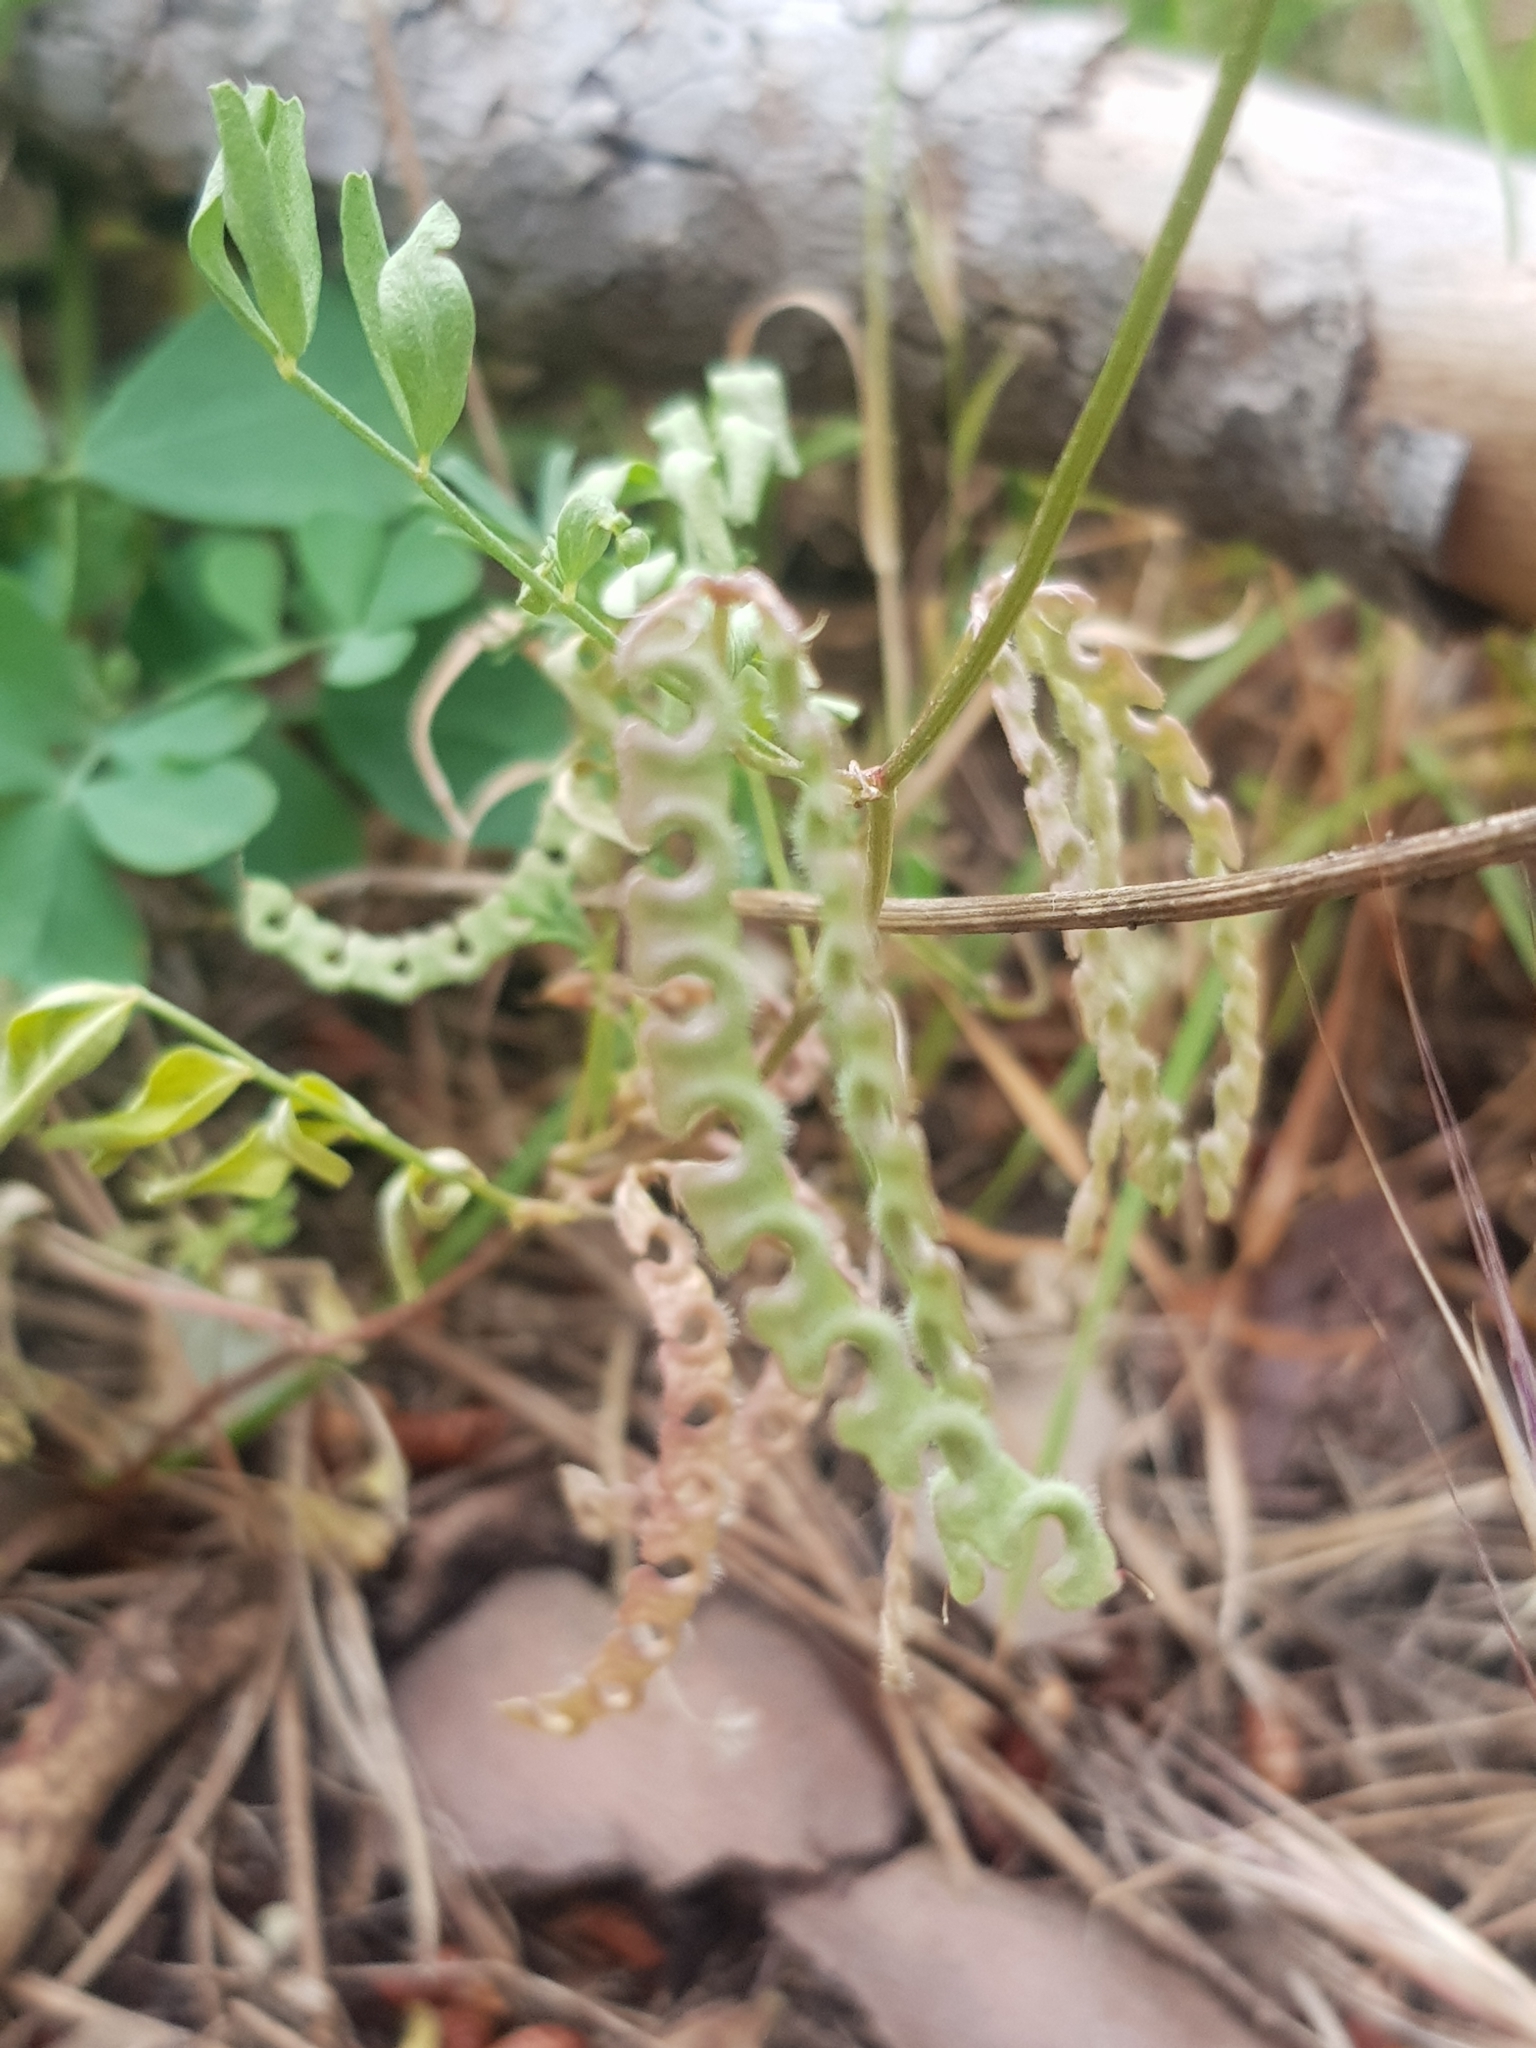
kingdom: Plantae
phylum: Tracheophyta
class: Magnoliopsida
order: Fabales
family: Fabaceae
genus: Hippocrepis
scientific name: Hippocrepis atlantica
